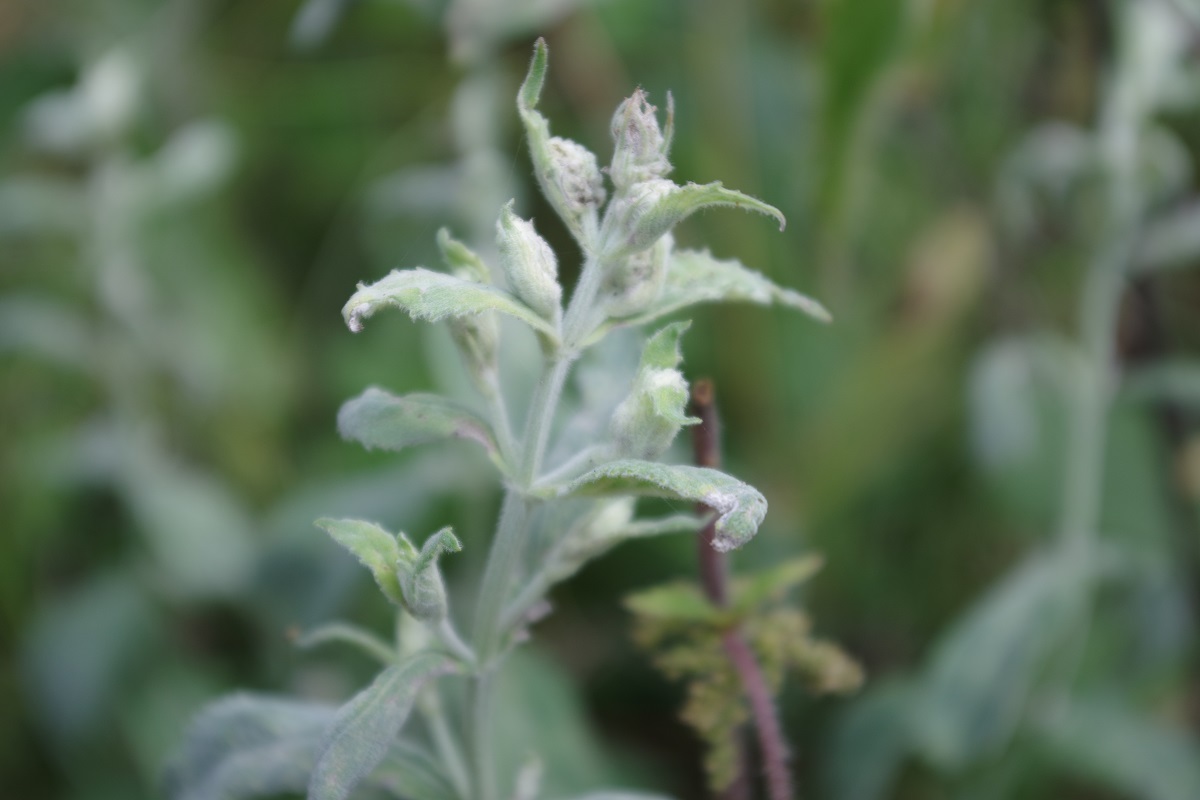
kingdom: Plantae
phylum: Tracheophyta
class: Magnoliopsida
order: Lamiales
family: Lamiaceae
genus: Mentha
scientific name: Mentha longifolia
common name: Horse mint
